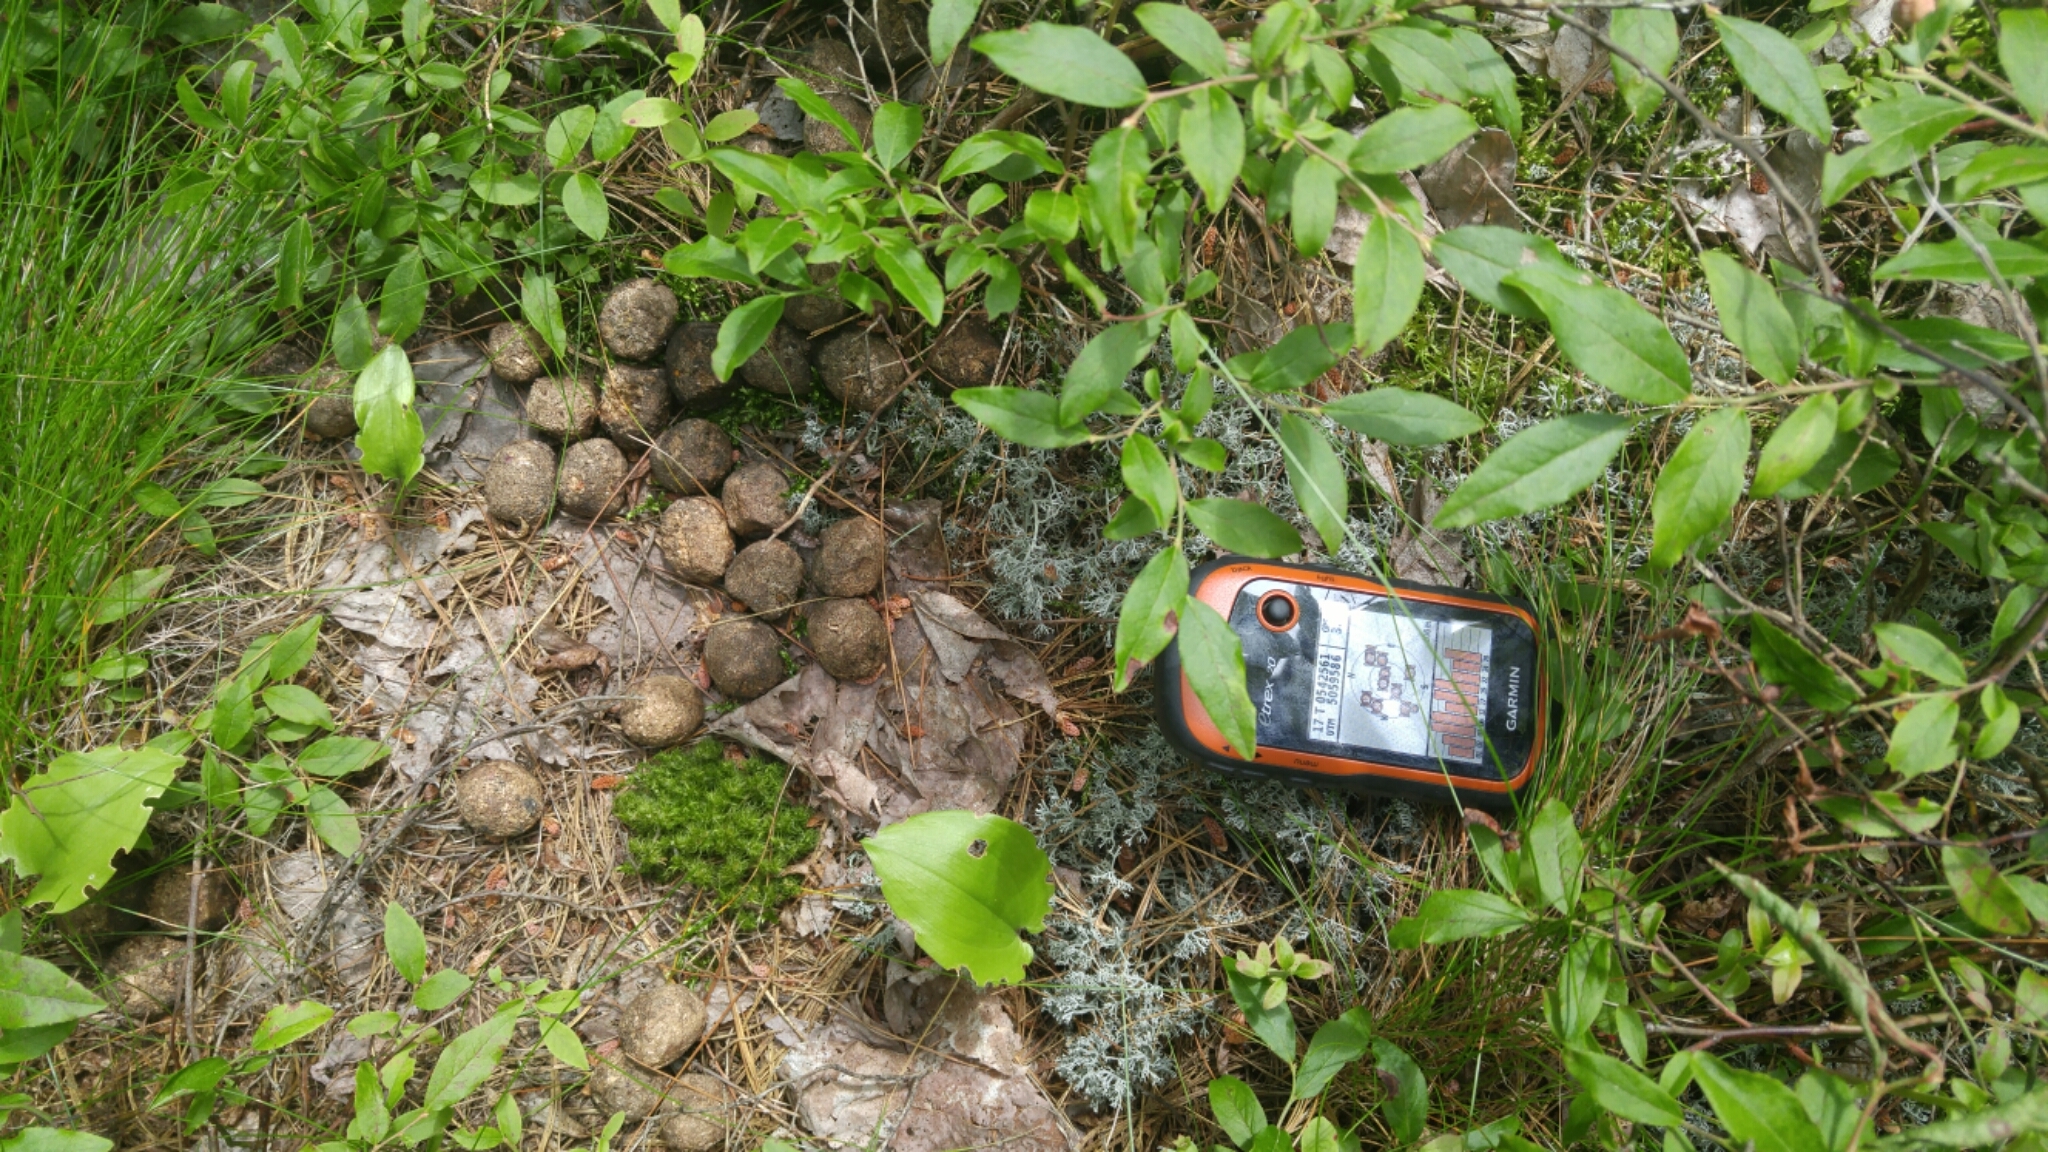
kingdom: Animalia
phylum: Chordata
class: Mammalia
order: Artiodactyla
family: Cervidae
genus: Alces
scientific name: Alces alces
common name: Moose
